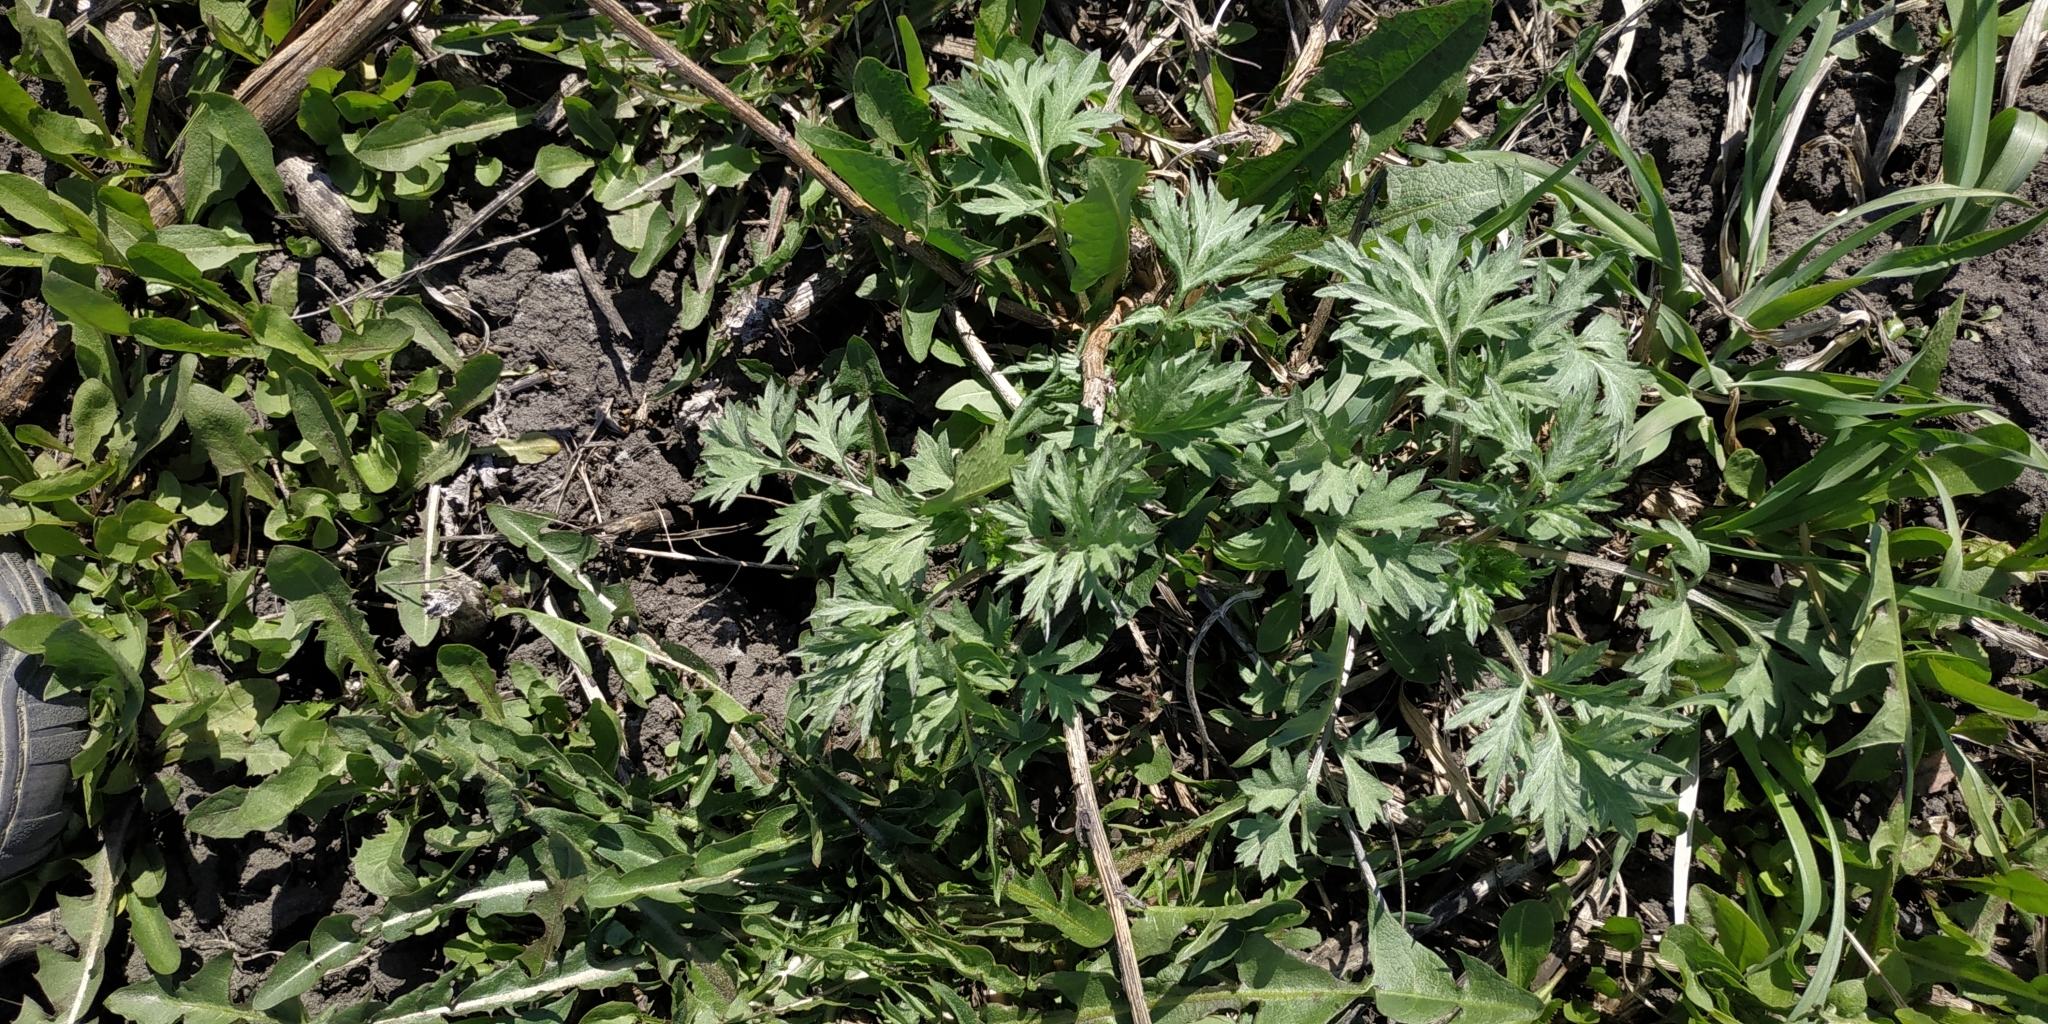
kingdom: Plantae
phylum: Tracheophyta
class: Magnoliopsida
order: Asterales
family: Asteraceae
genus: Artemisia
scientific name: Artemisia vulgaris
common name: Mugwort
